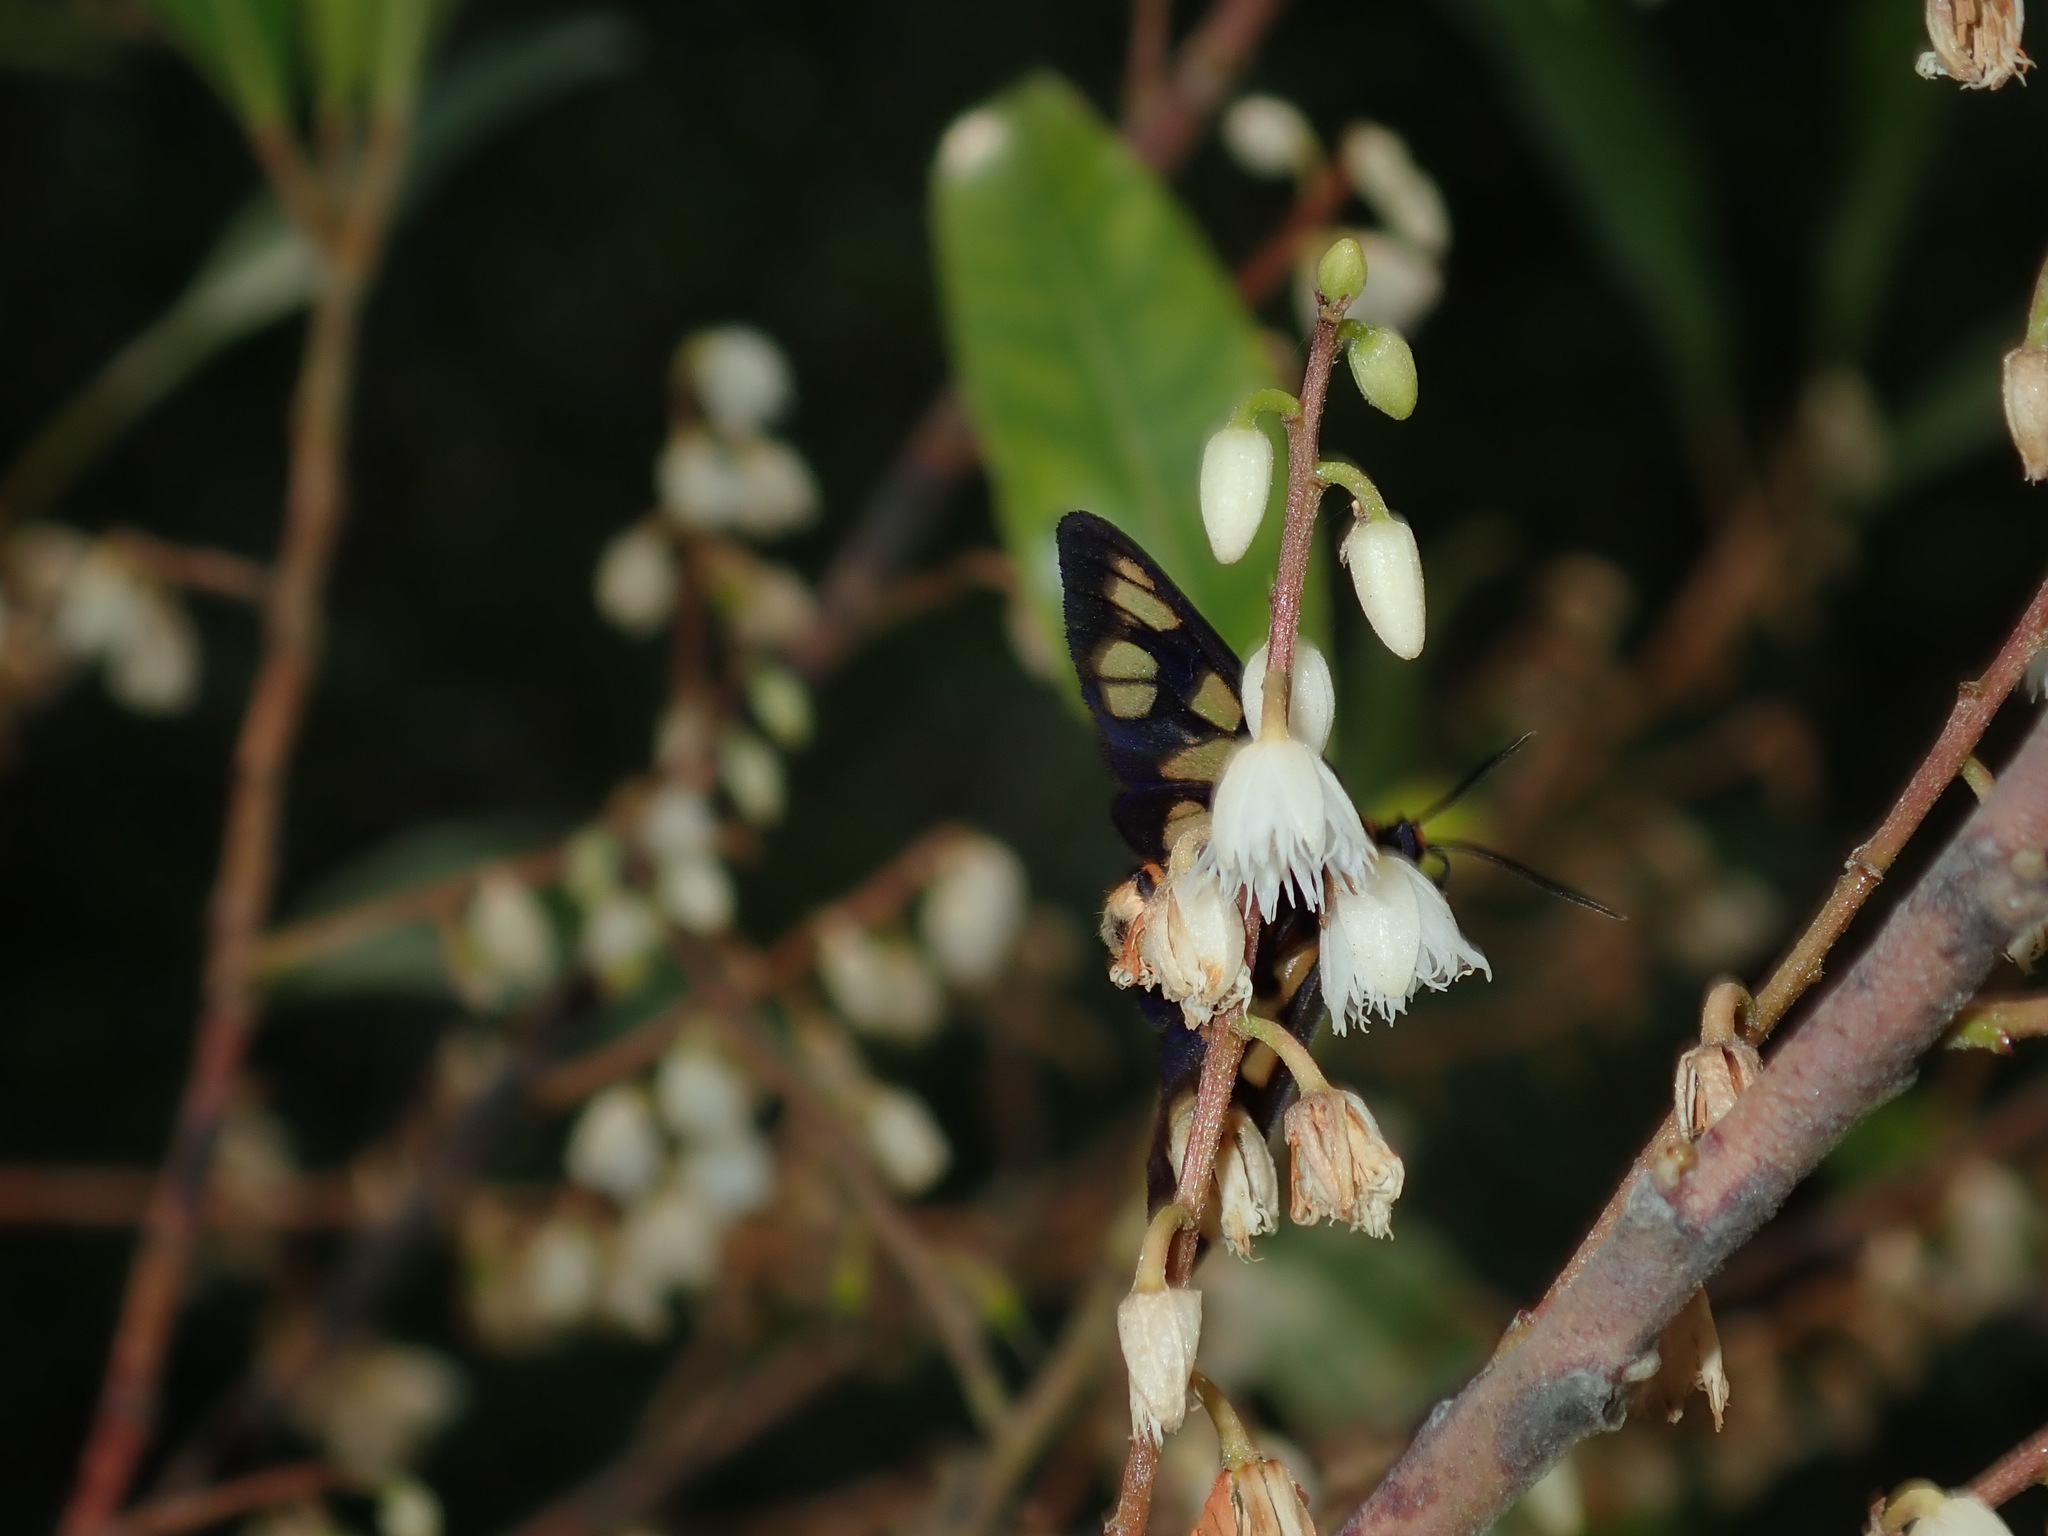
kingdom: Animalia
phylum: Arthropoda
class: Insecta
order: Lepidoptera
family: Erebidae
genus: Amata
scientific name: Amata nigriceps
